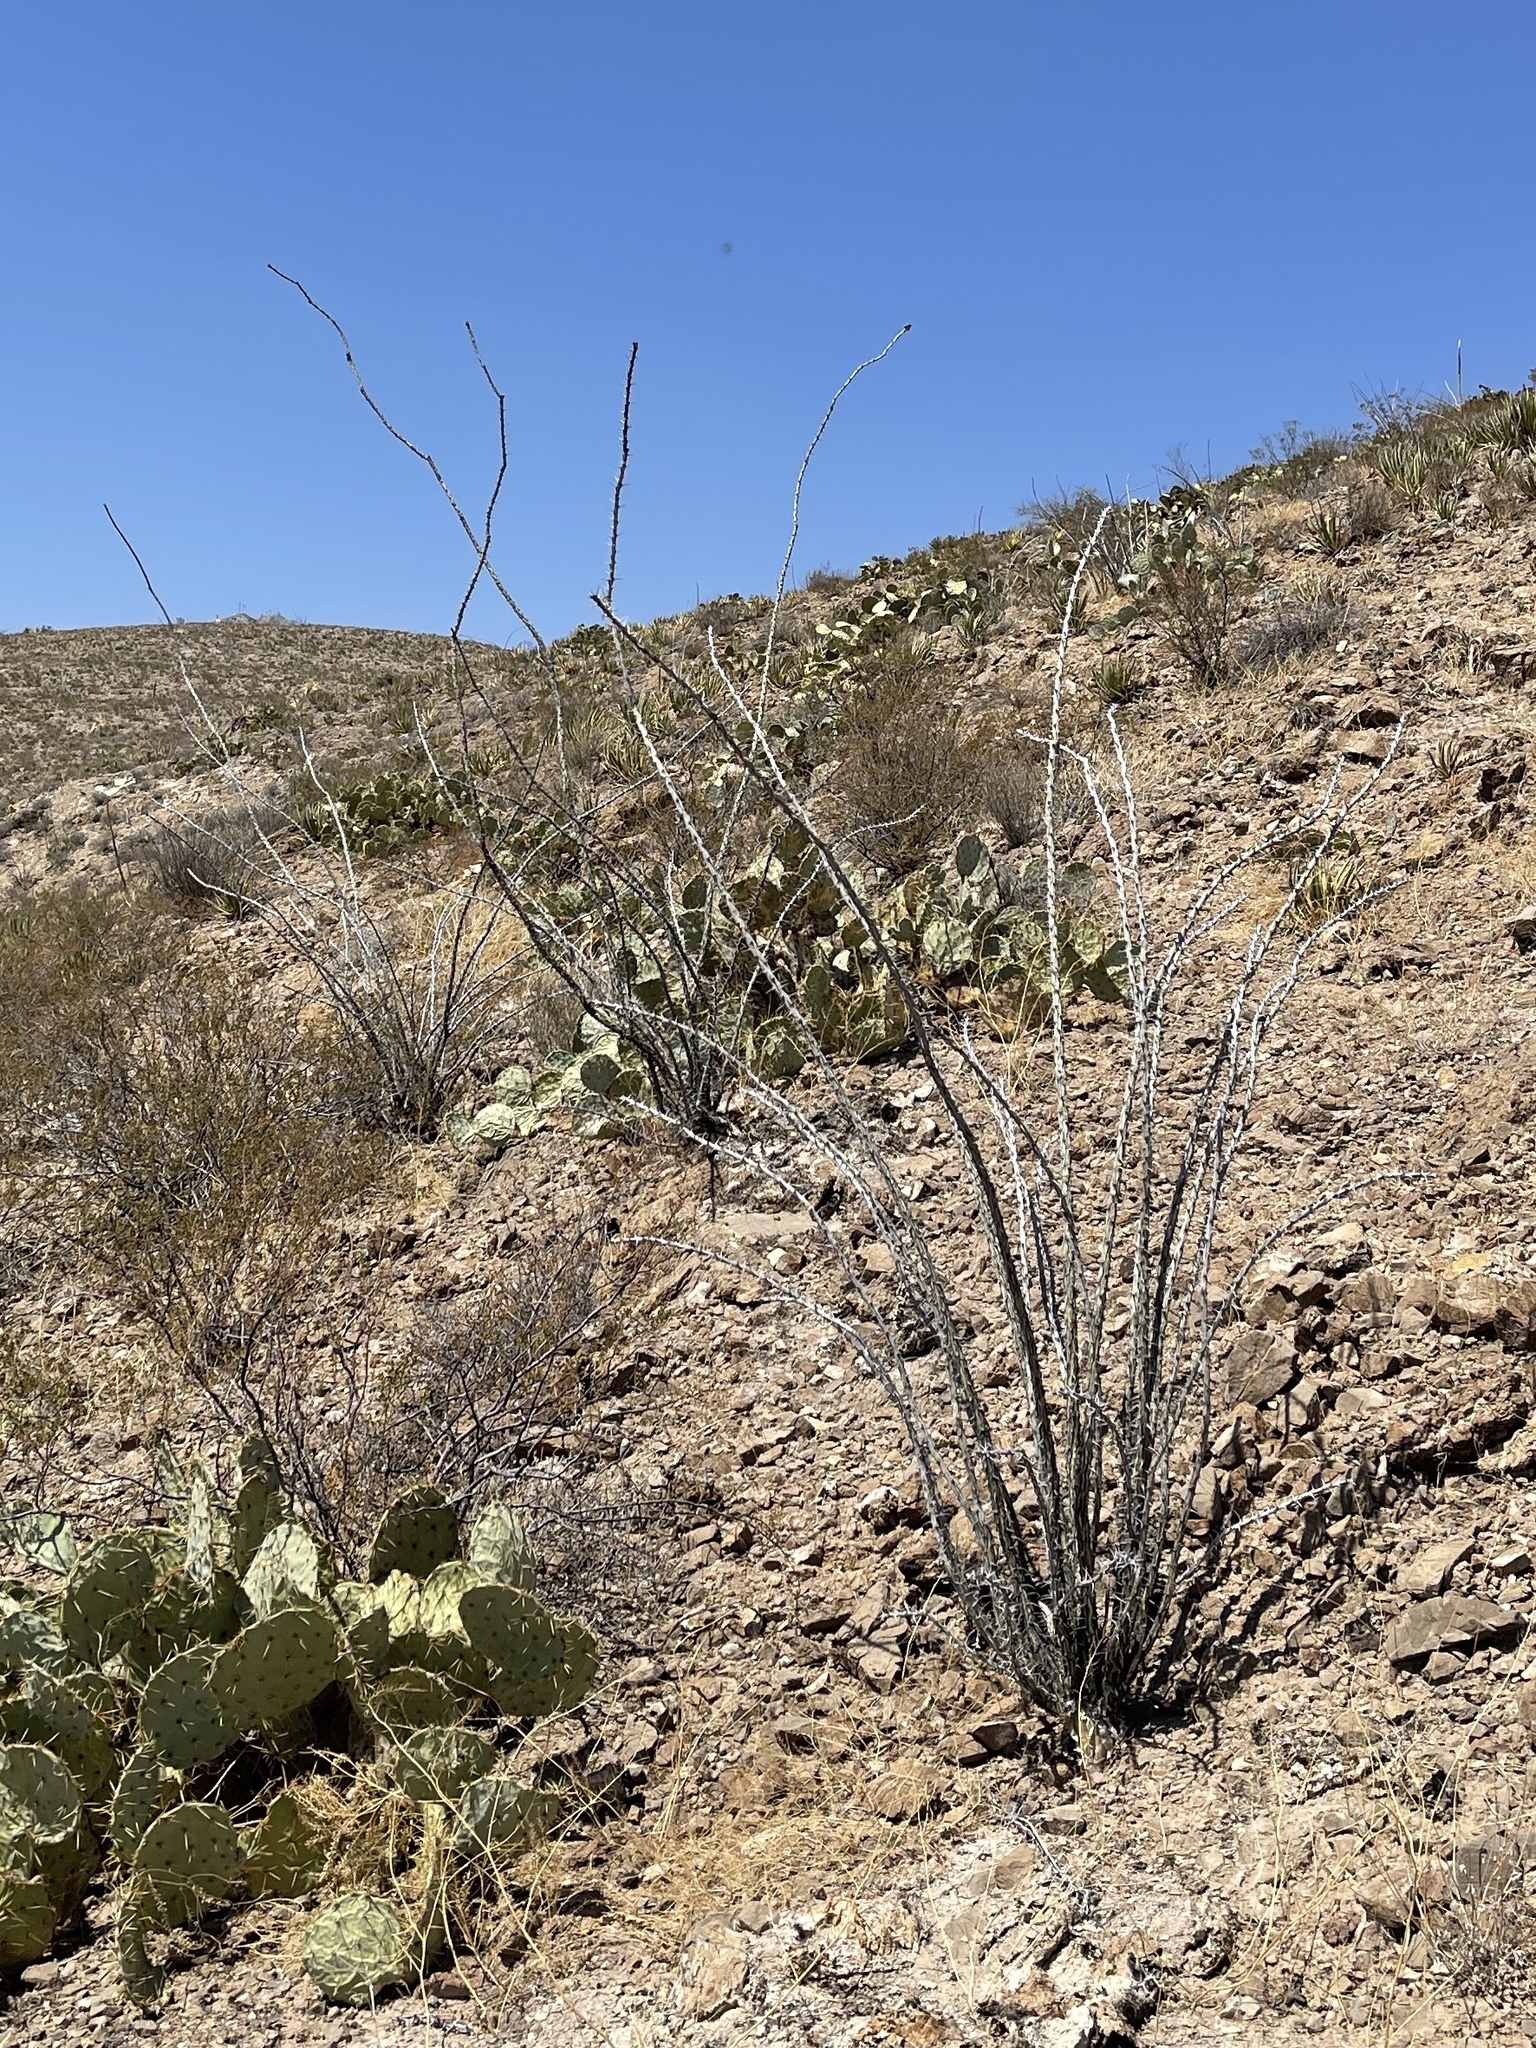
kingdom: Plantae
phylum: Tracheophyta
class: Magnoliopsida
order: Ericales
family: Fouquieriaceae
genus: Fouquieria
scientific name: Fouquieria splendens
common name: Vine-cactus
